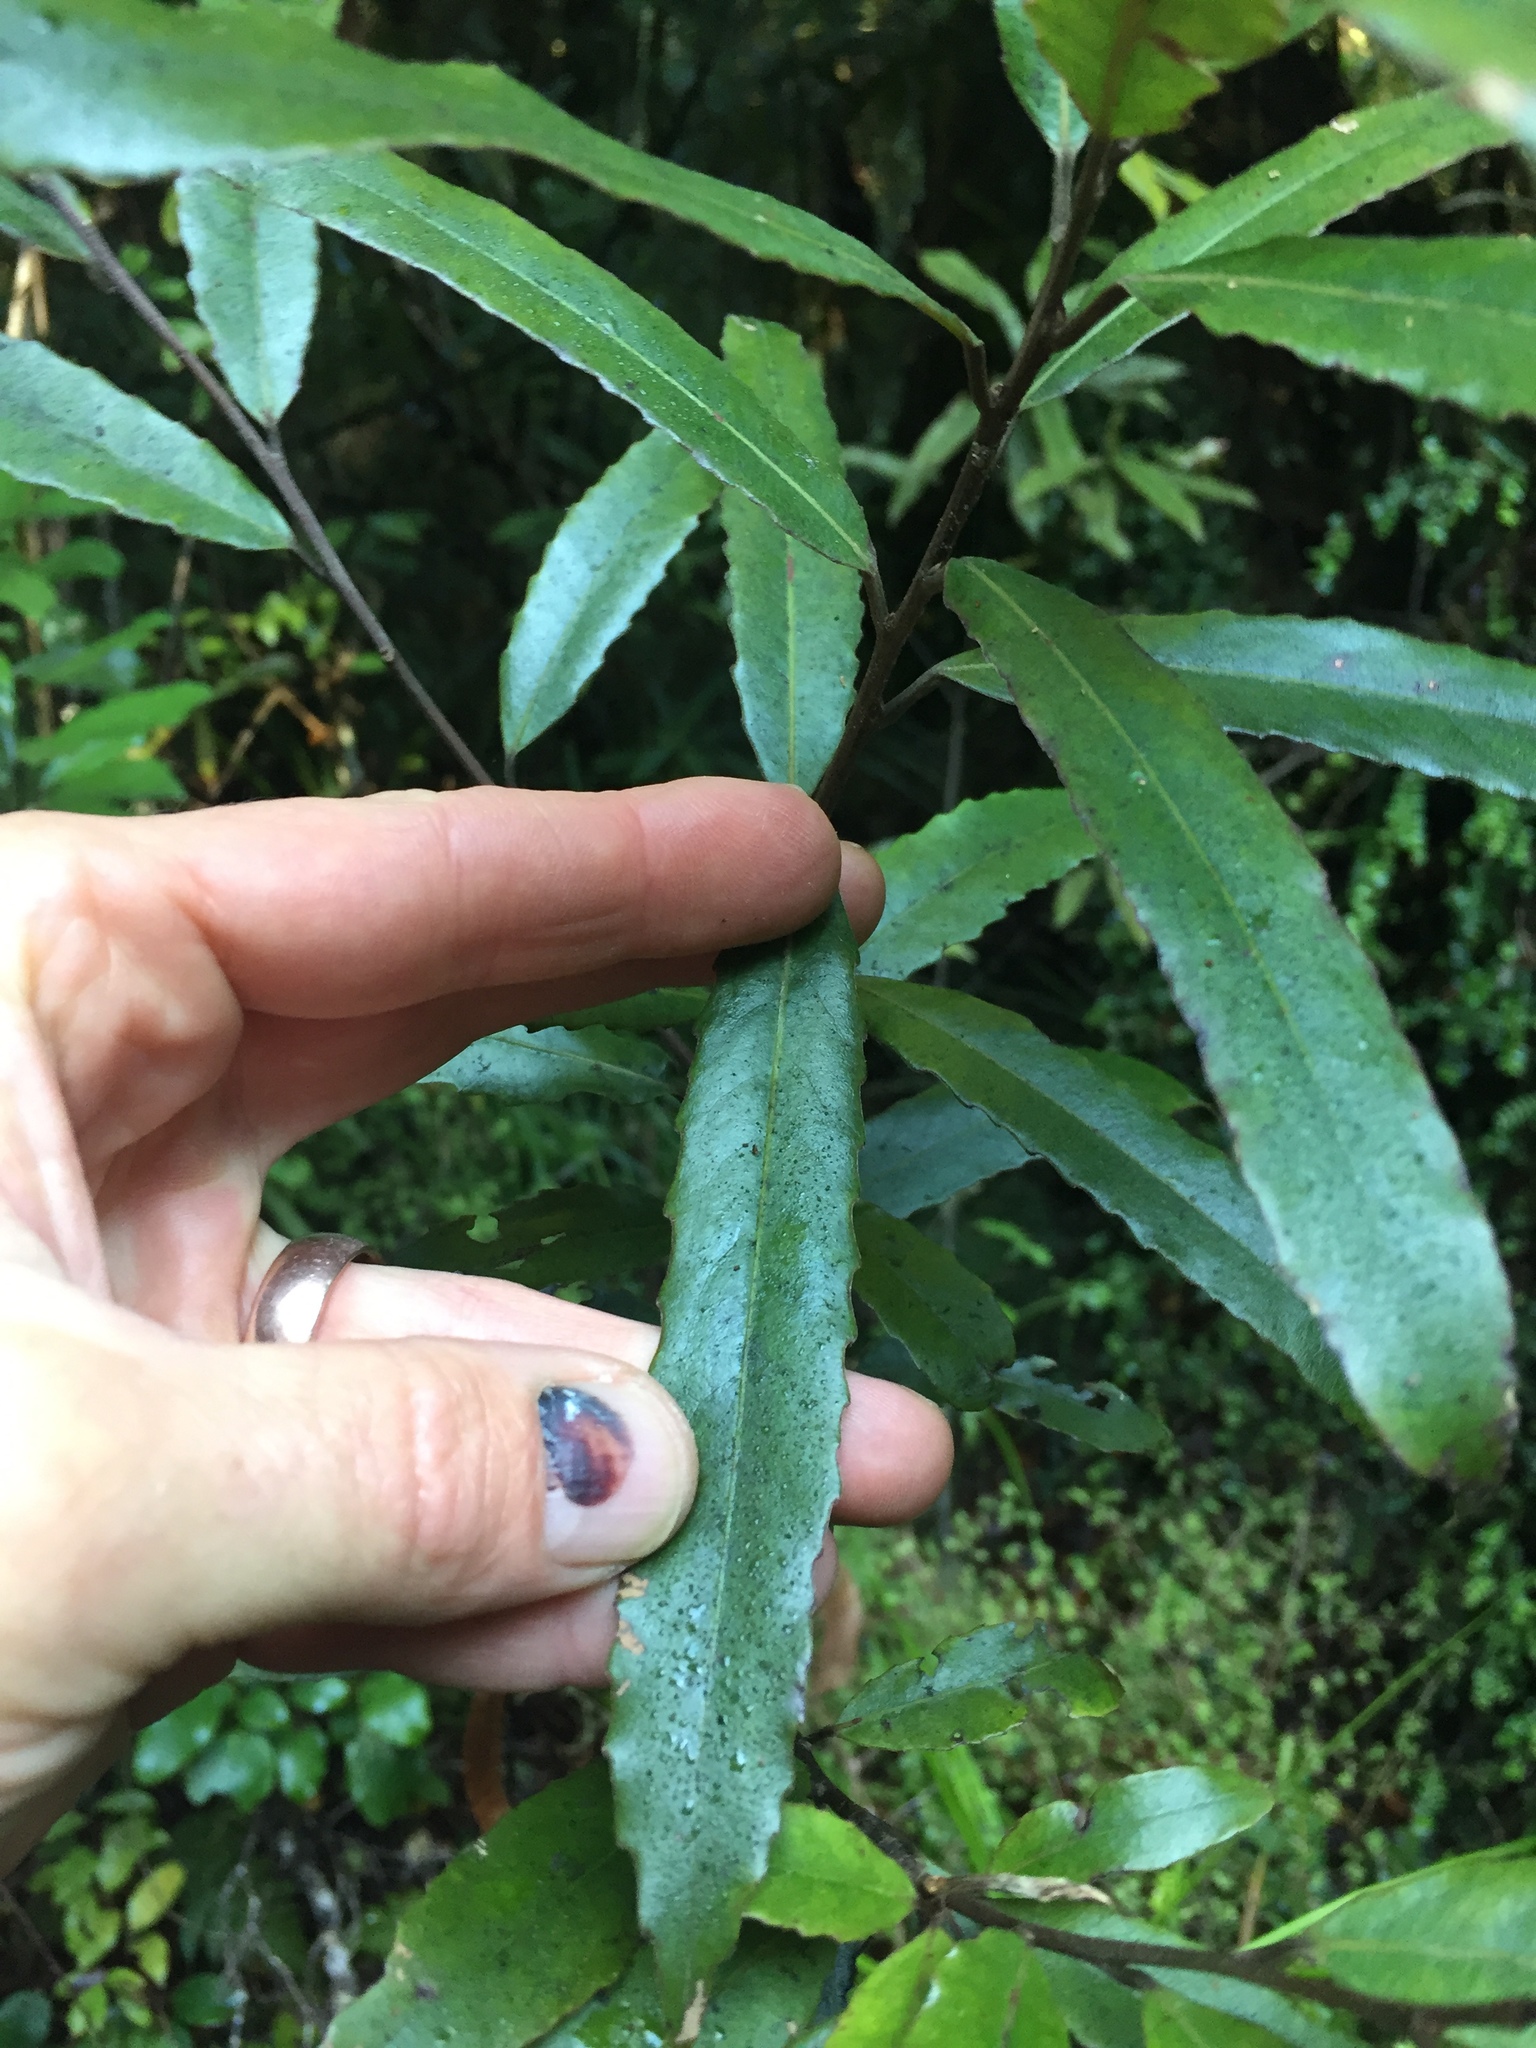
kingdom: Plantae
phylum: Tracheophyta
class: Magnoliopsida
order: Oxalidales
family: Elaeocarpaceae
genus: Elaeocarpus
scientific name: Elaeocarpus dentatus
